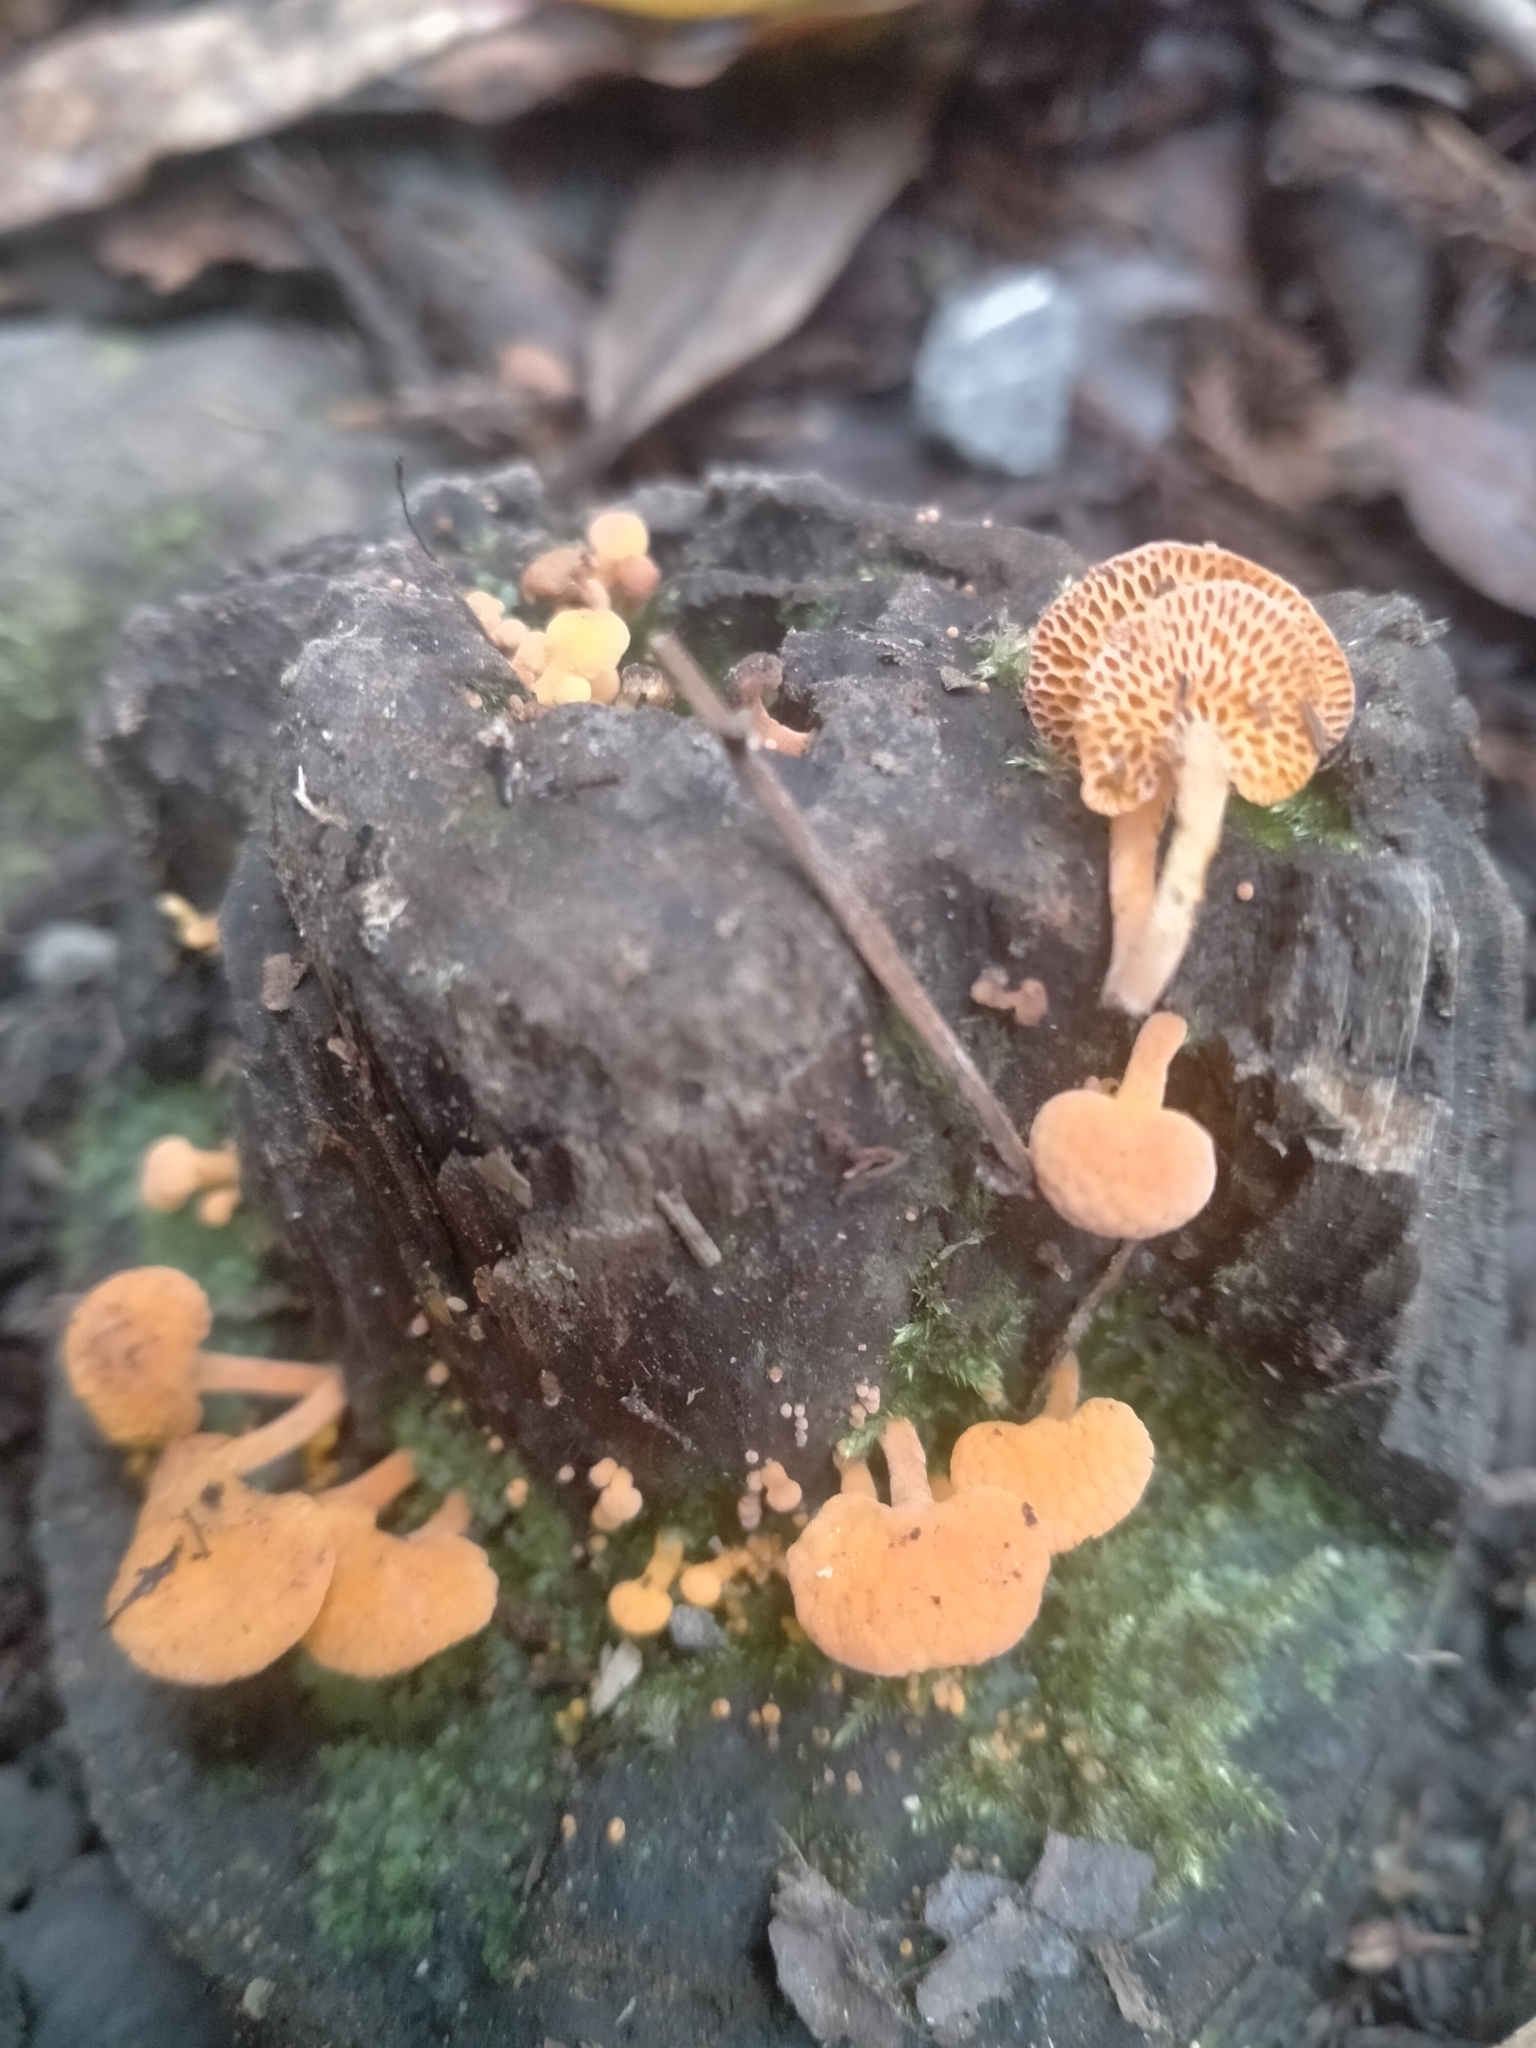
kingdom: Fungi
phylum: Basidiomycota
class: Agaricomycetes
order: Agaricales
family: Mycenaceae
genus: Favolaschia
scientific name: Favolaschia claudopus
